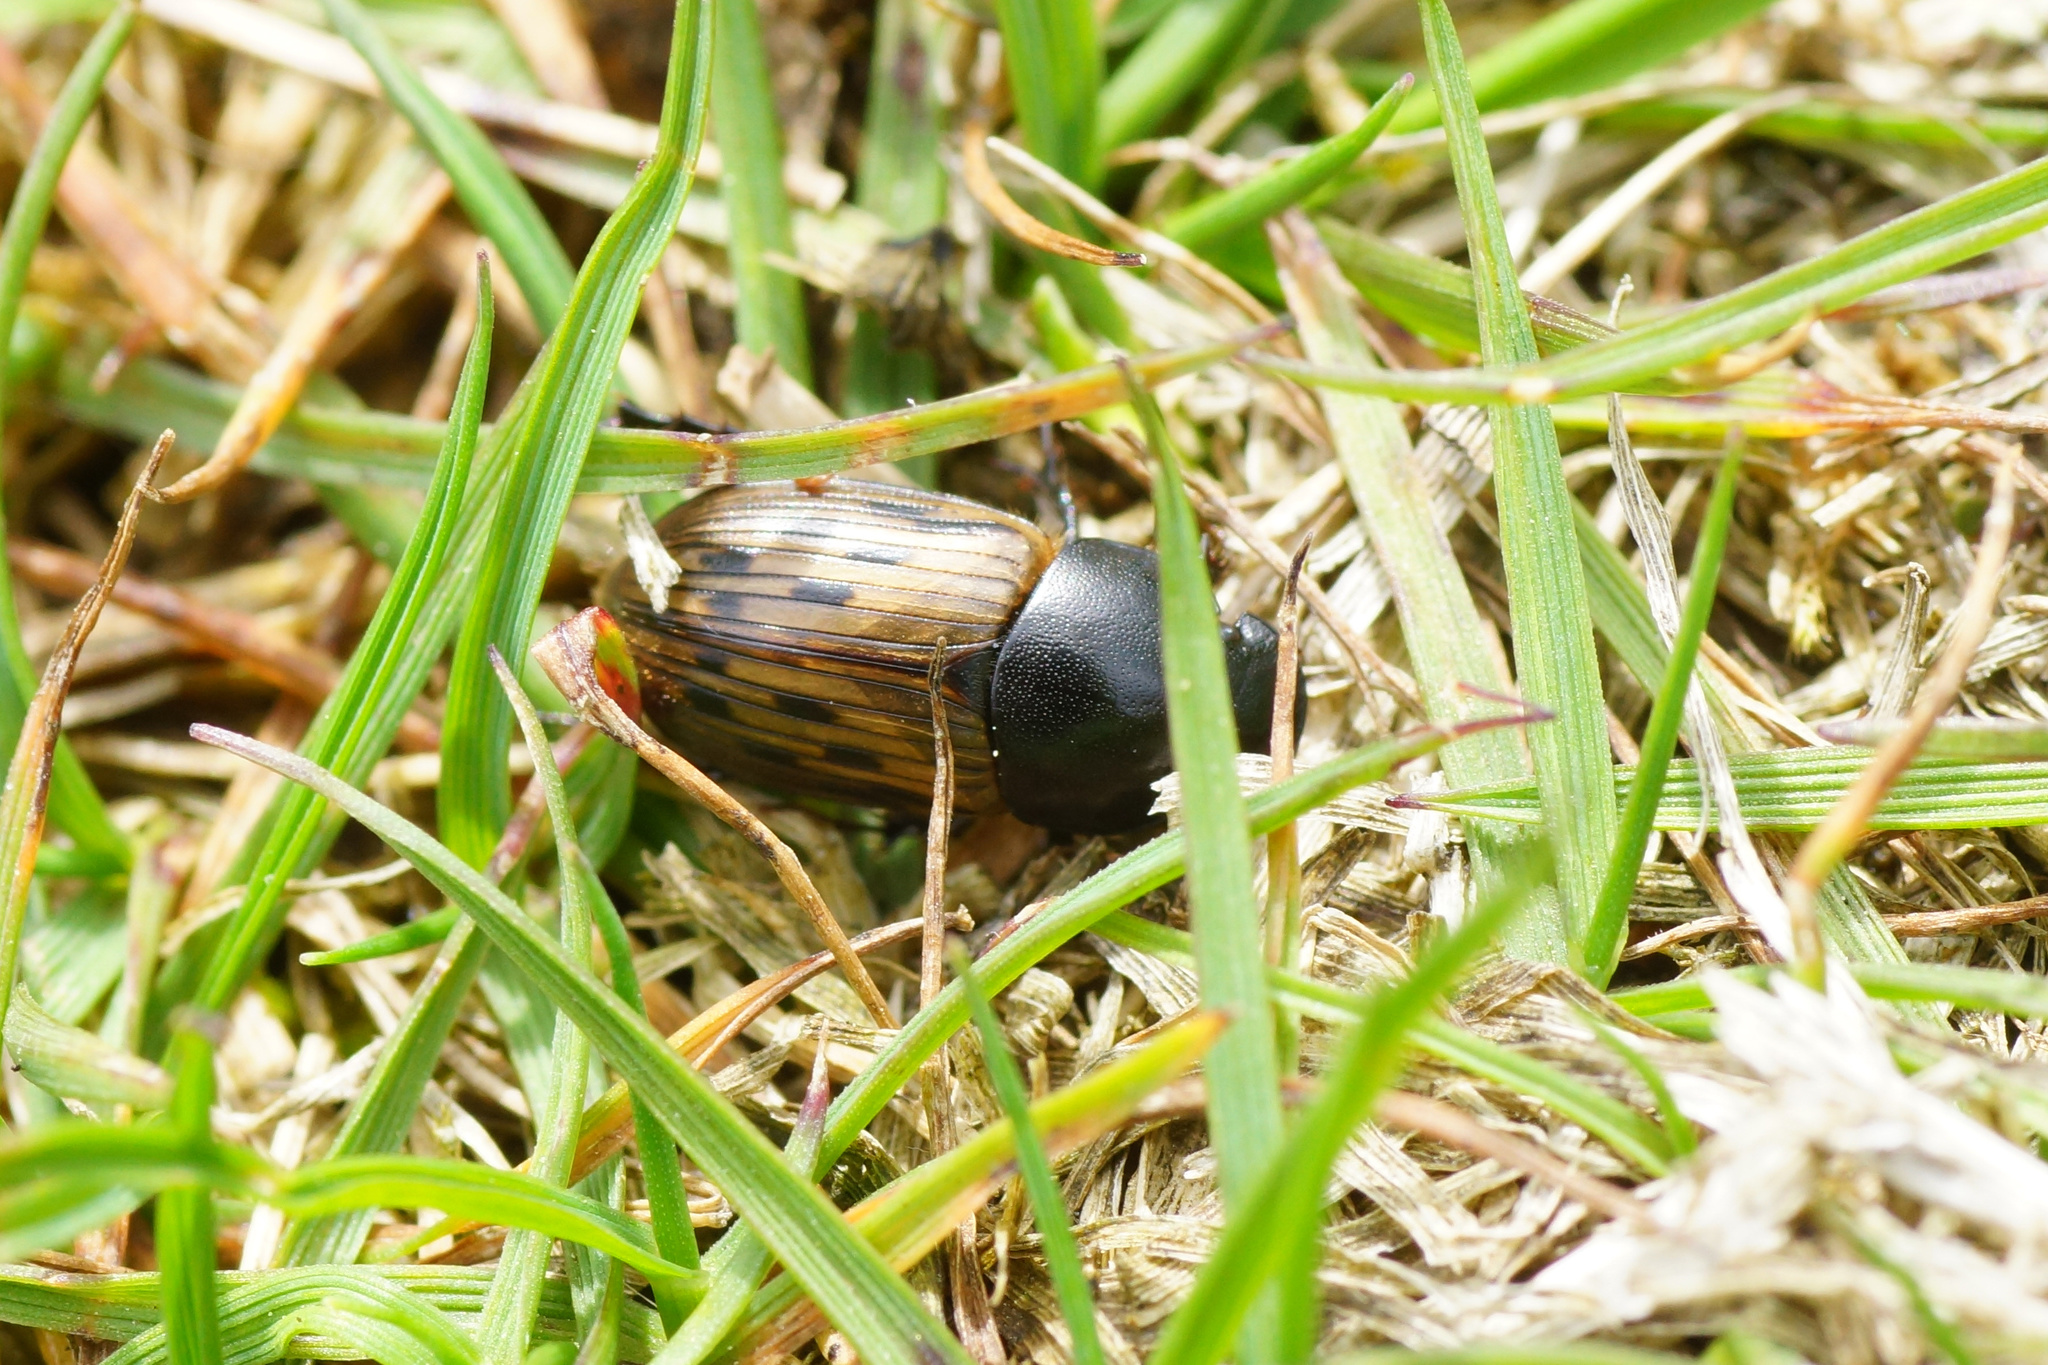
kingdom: Animalia
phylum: Arthropoda
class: Insecta
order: Coleoptera
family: Scarabaeidae
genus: Acrossus
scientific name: Acrossus luridus
